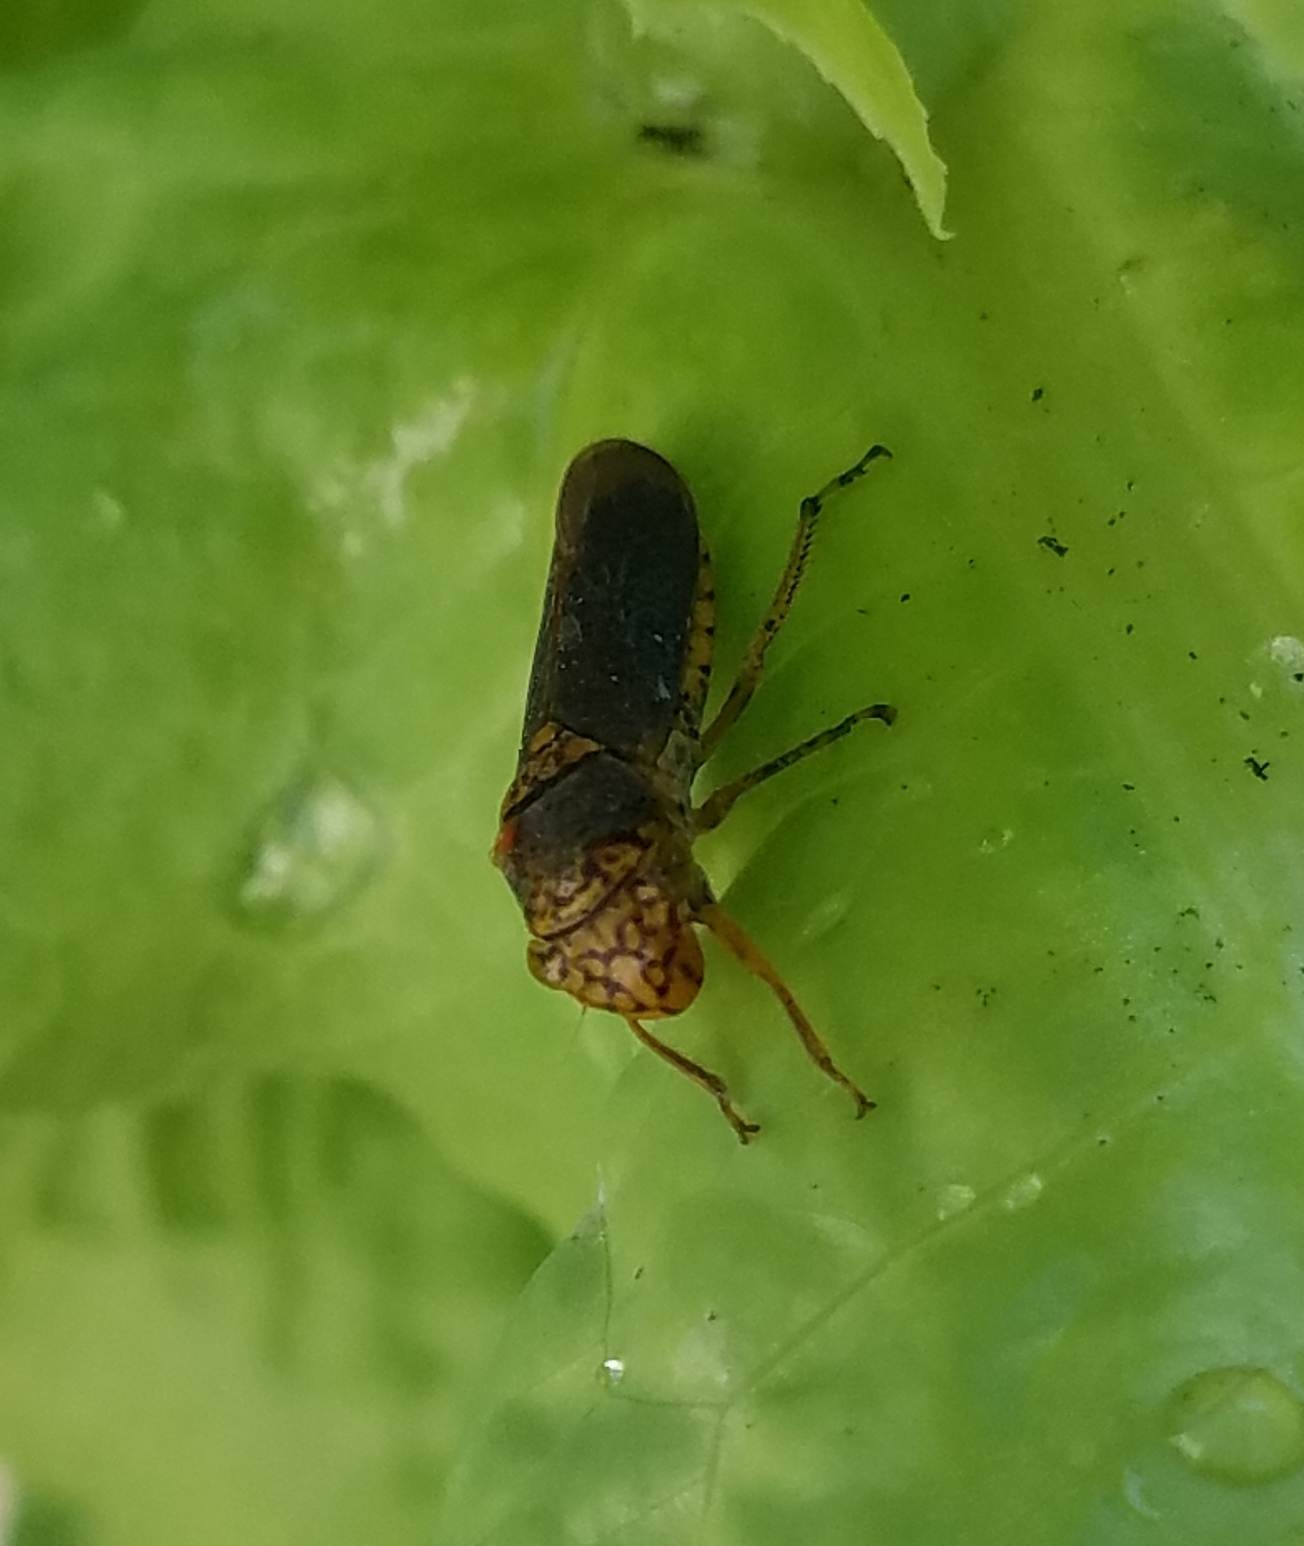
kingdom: Animalia
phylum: Arthropoda
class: Insecta
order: Hemiptera
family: Cicadellidae
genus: Oncometopia
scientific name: Oncometopia orbona
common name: Broad-headed sharpshooter
